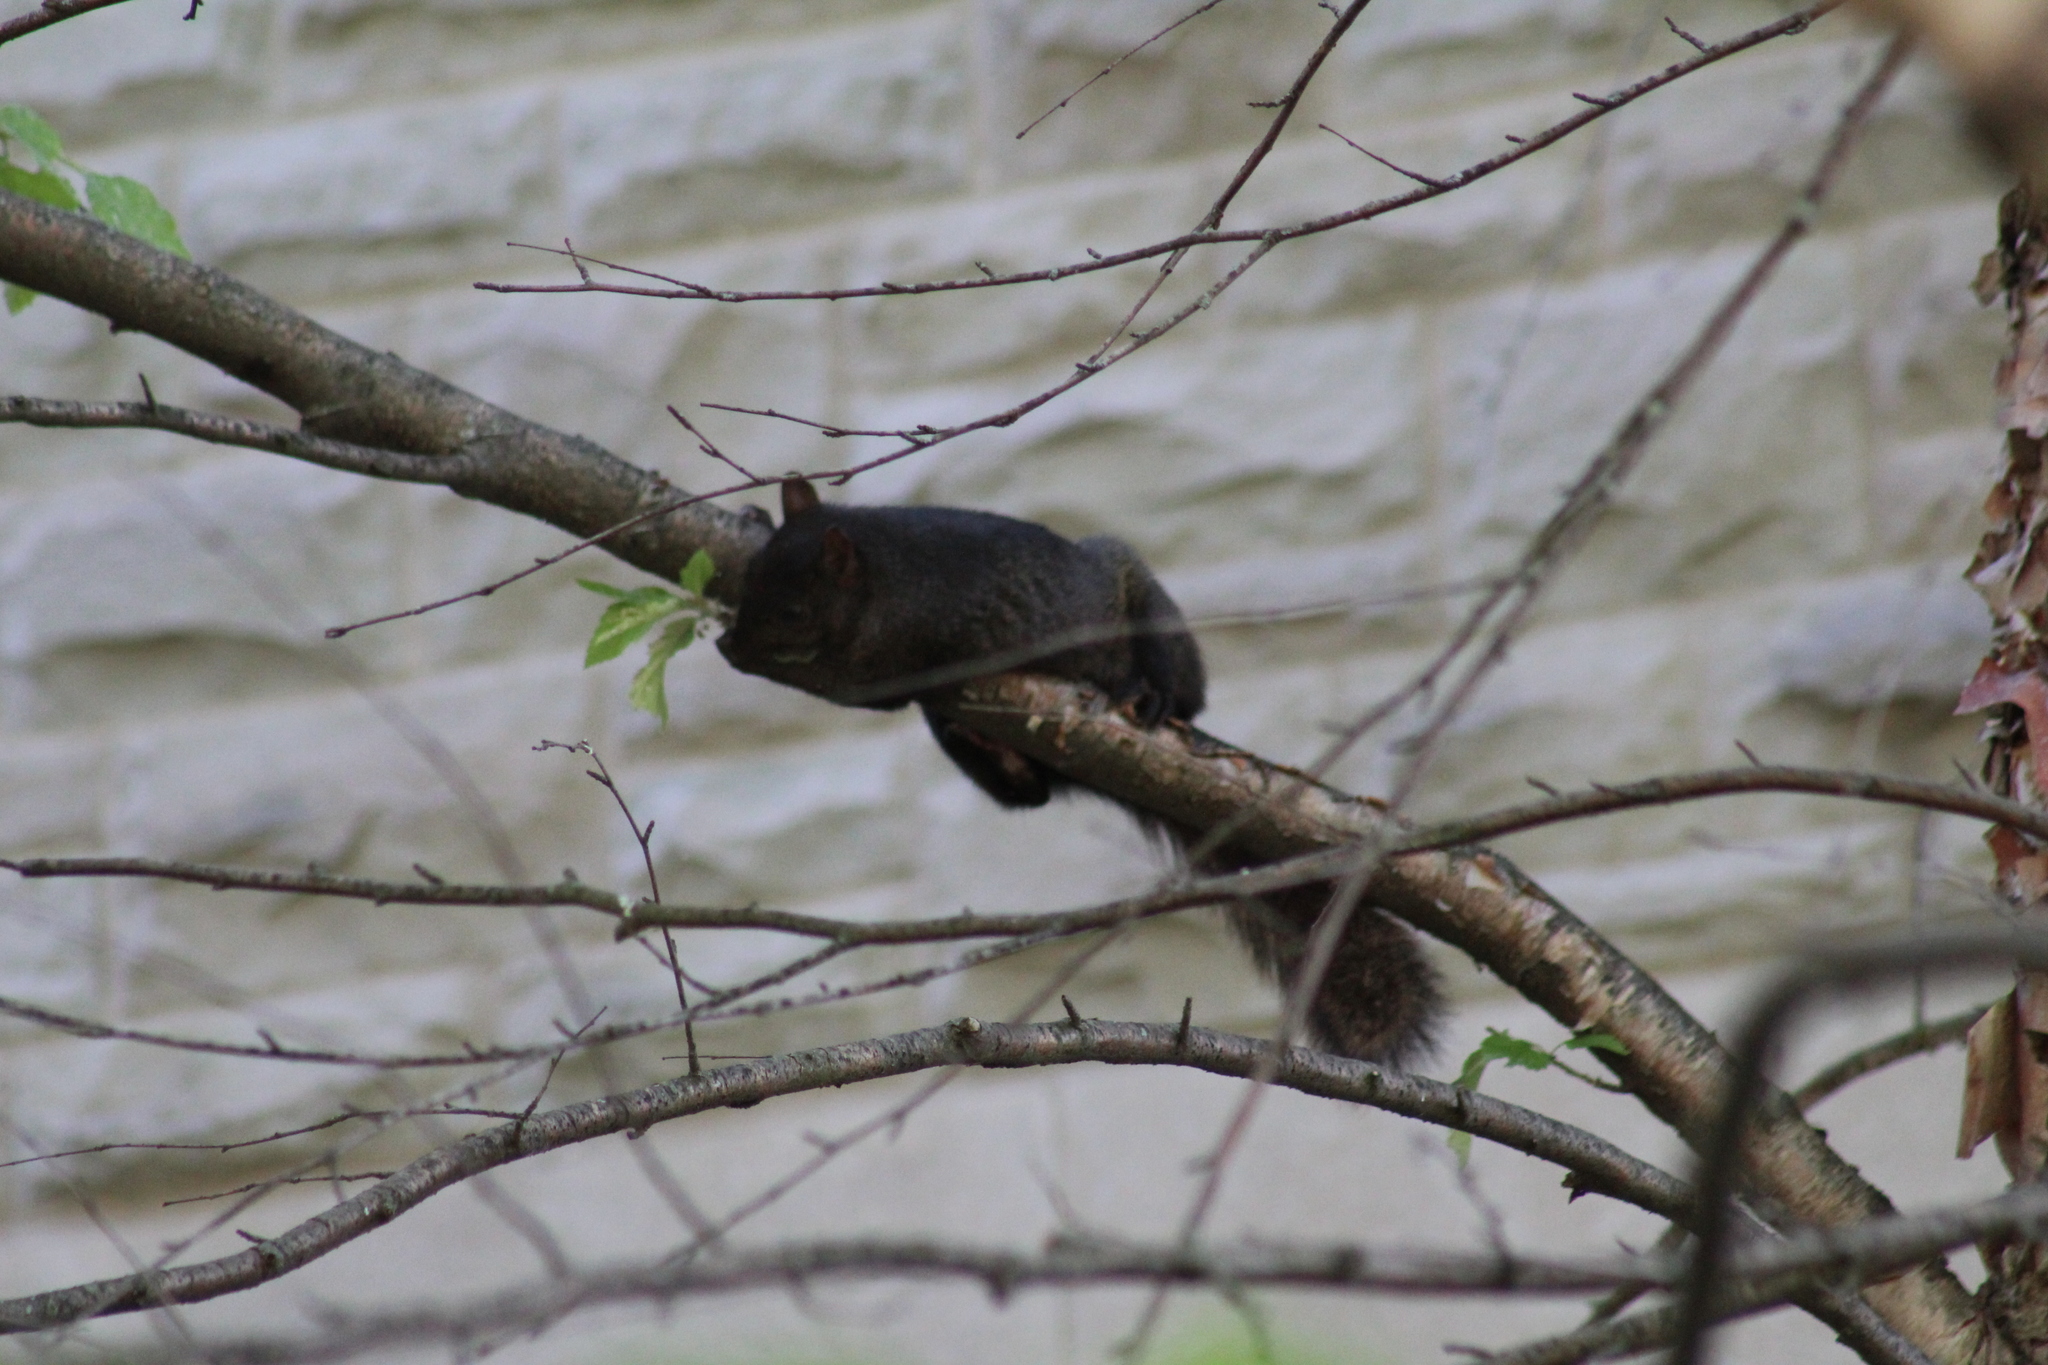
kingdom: Animalia
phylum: Chordata
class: Mammalia
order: Rodentia
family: Sciuridae
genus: Sciurus
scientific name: Sciurus carolinensis
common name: Eastern gray squirrel
